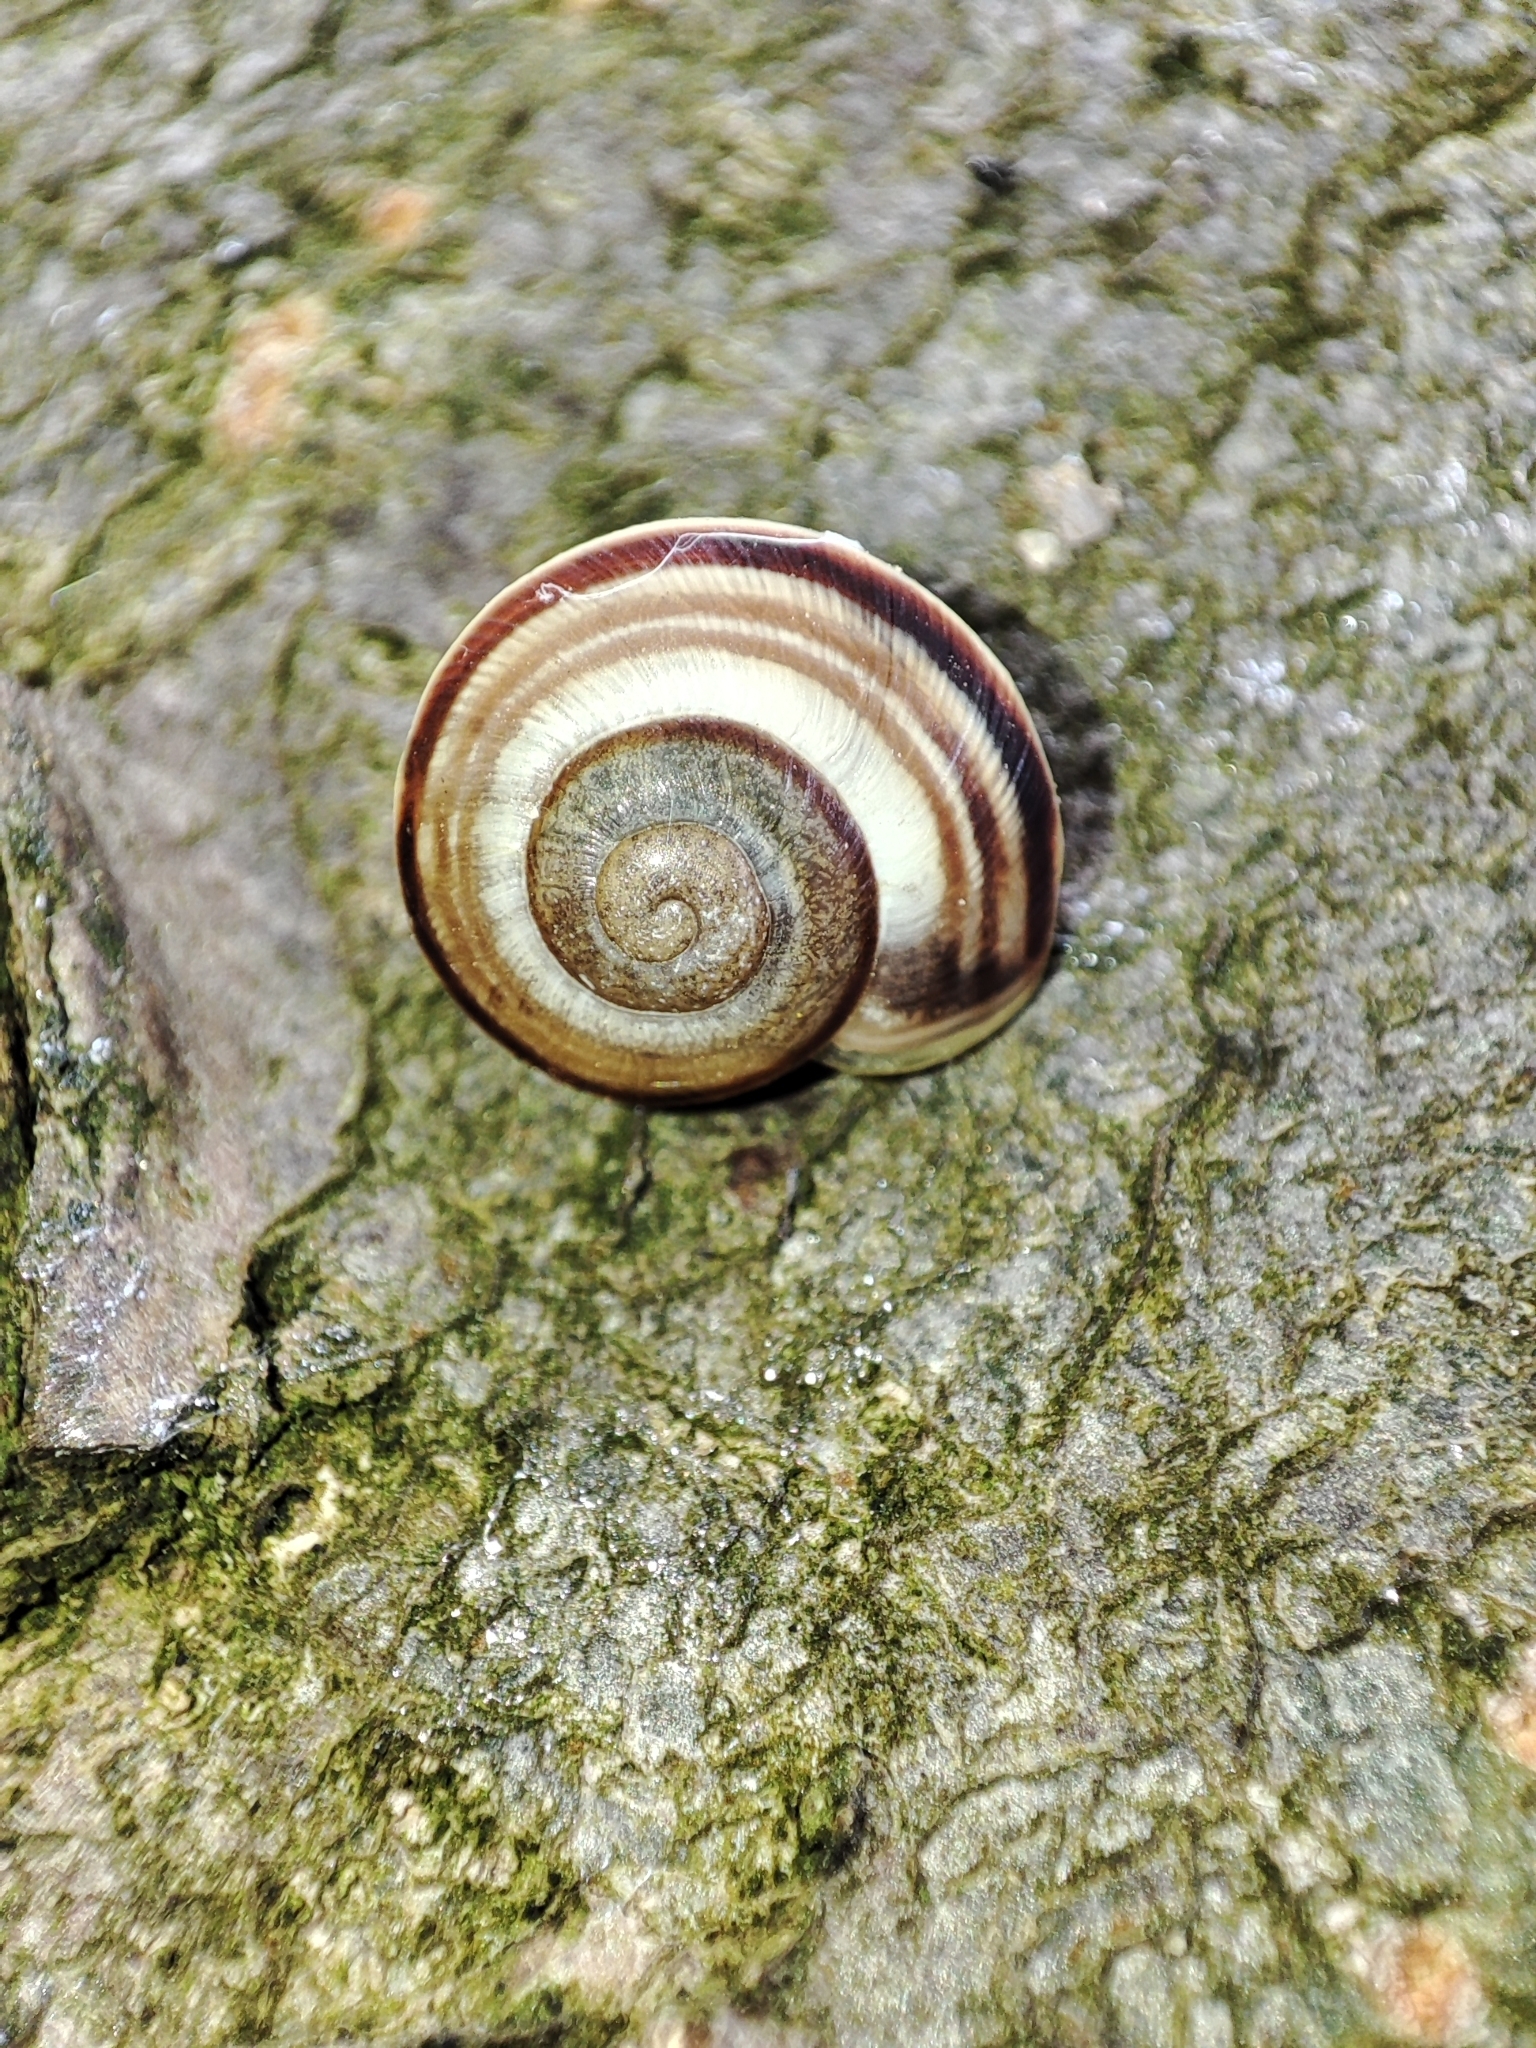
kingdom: Animalia
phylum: Mollusca
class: Gastropoda
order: Stylommatophora
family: Helicidae
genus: Caucasotachea
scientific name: Caucasotachea vindobonensis
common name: European helicid land snail
